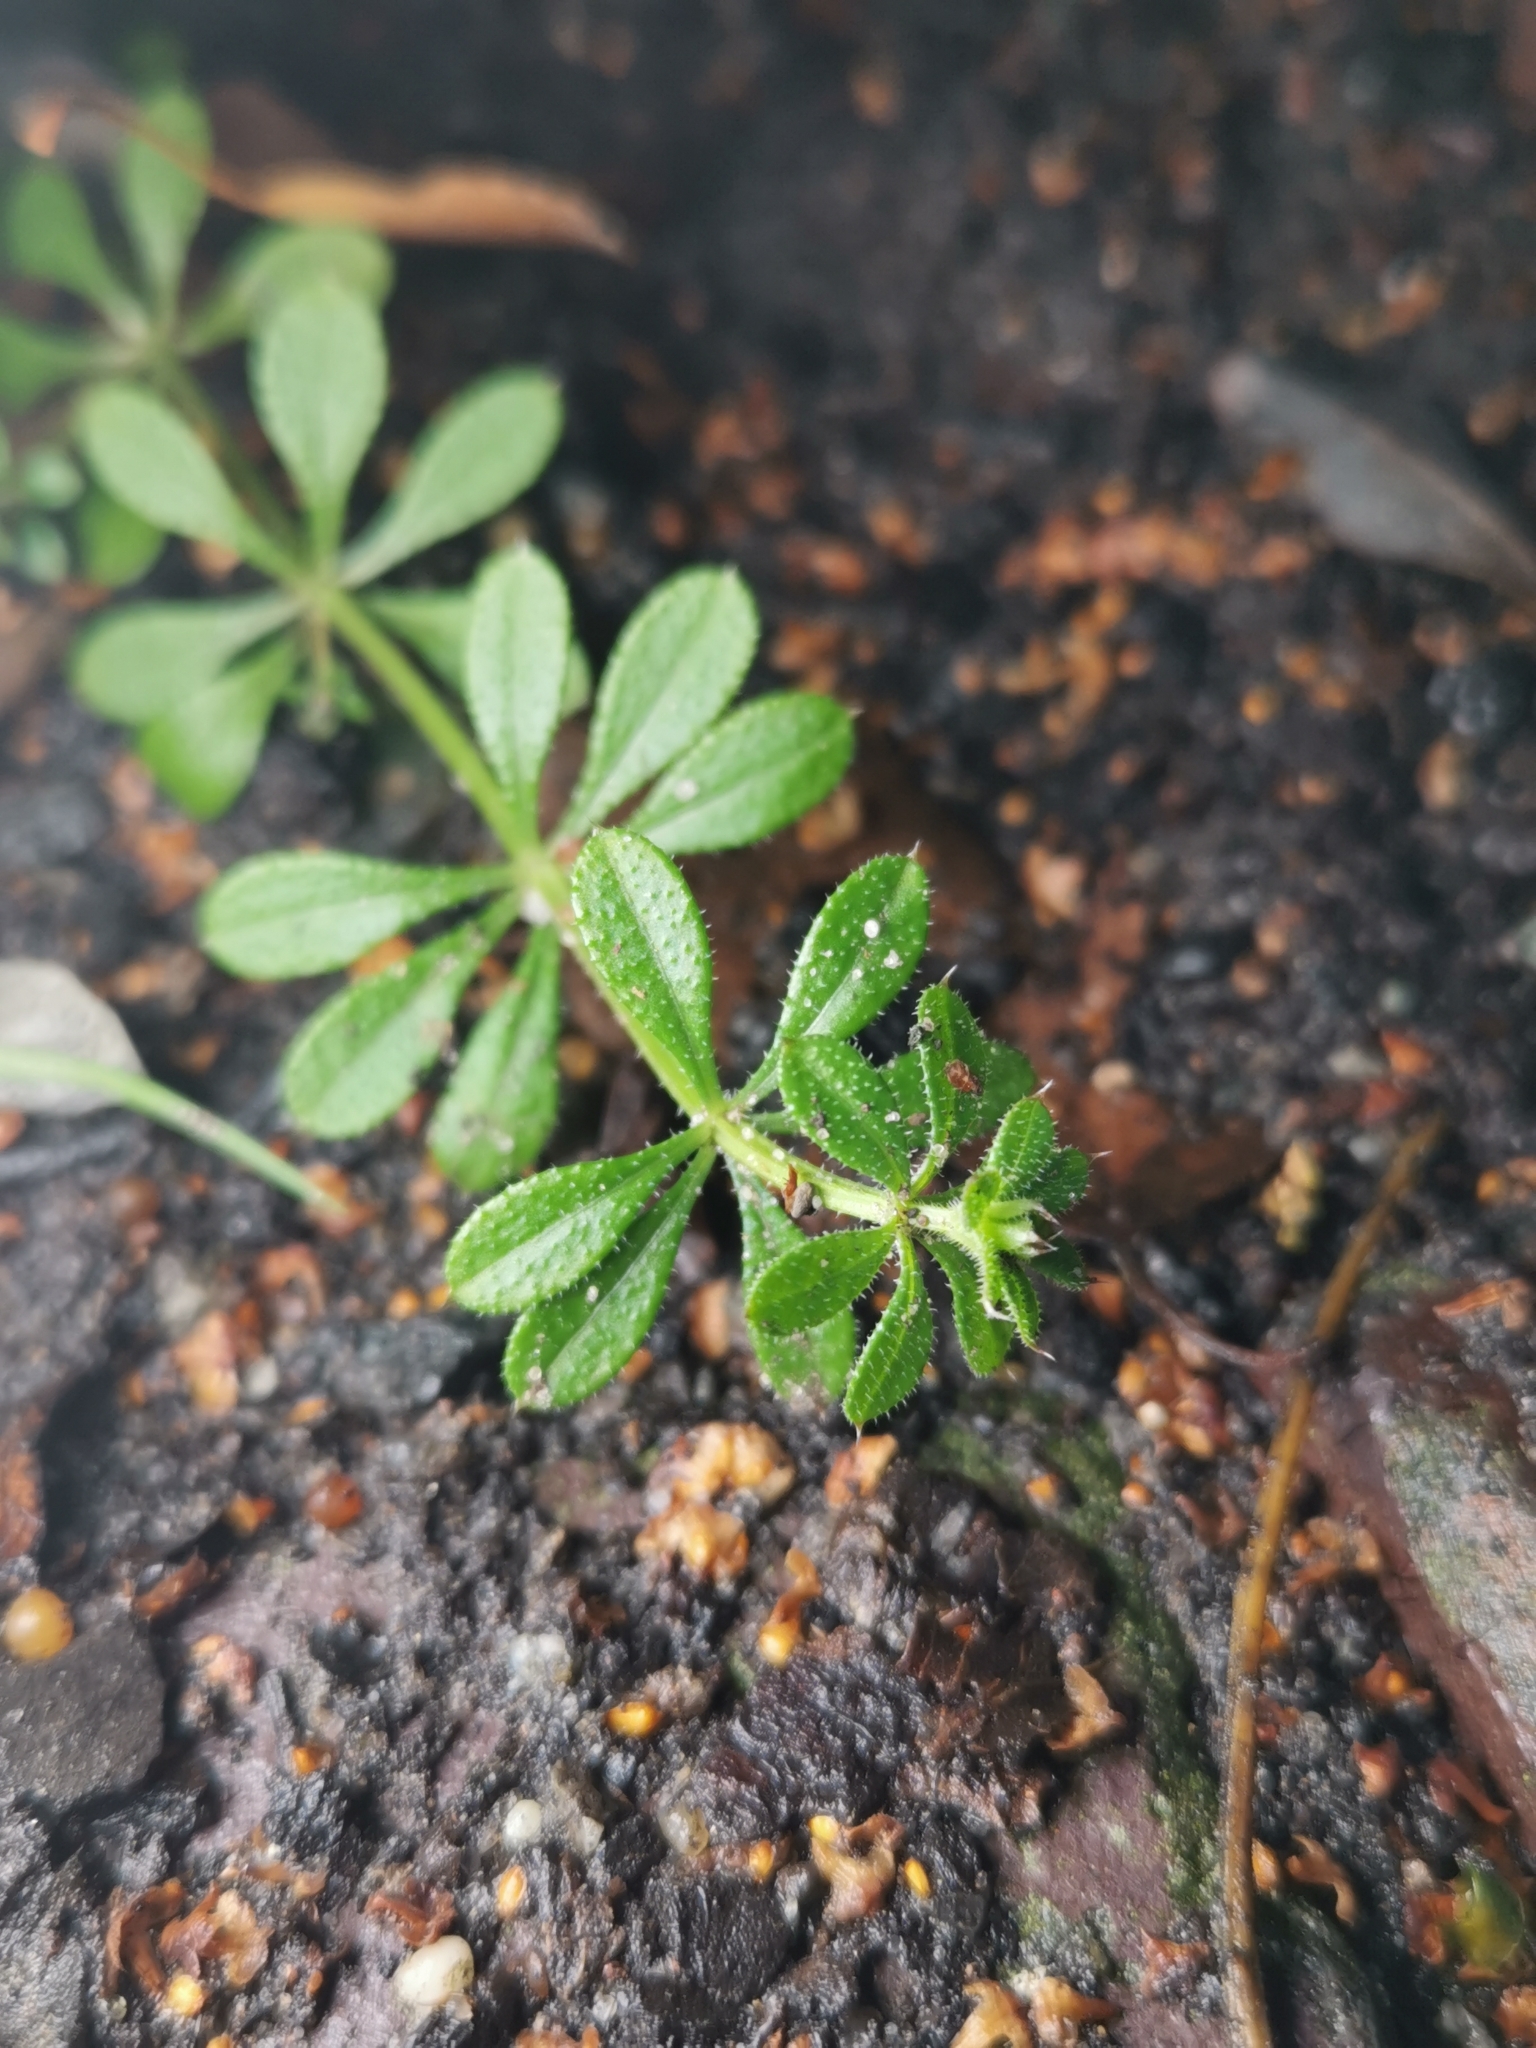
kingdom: Plantae
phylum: Tracheophyta
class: Magnoliopsida
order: Gentianales
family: Rubiaceae
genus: Galium
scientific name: Galium aparine
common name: Cleavers
